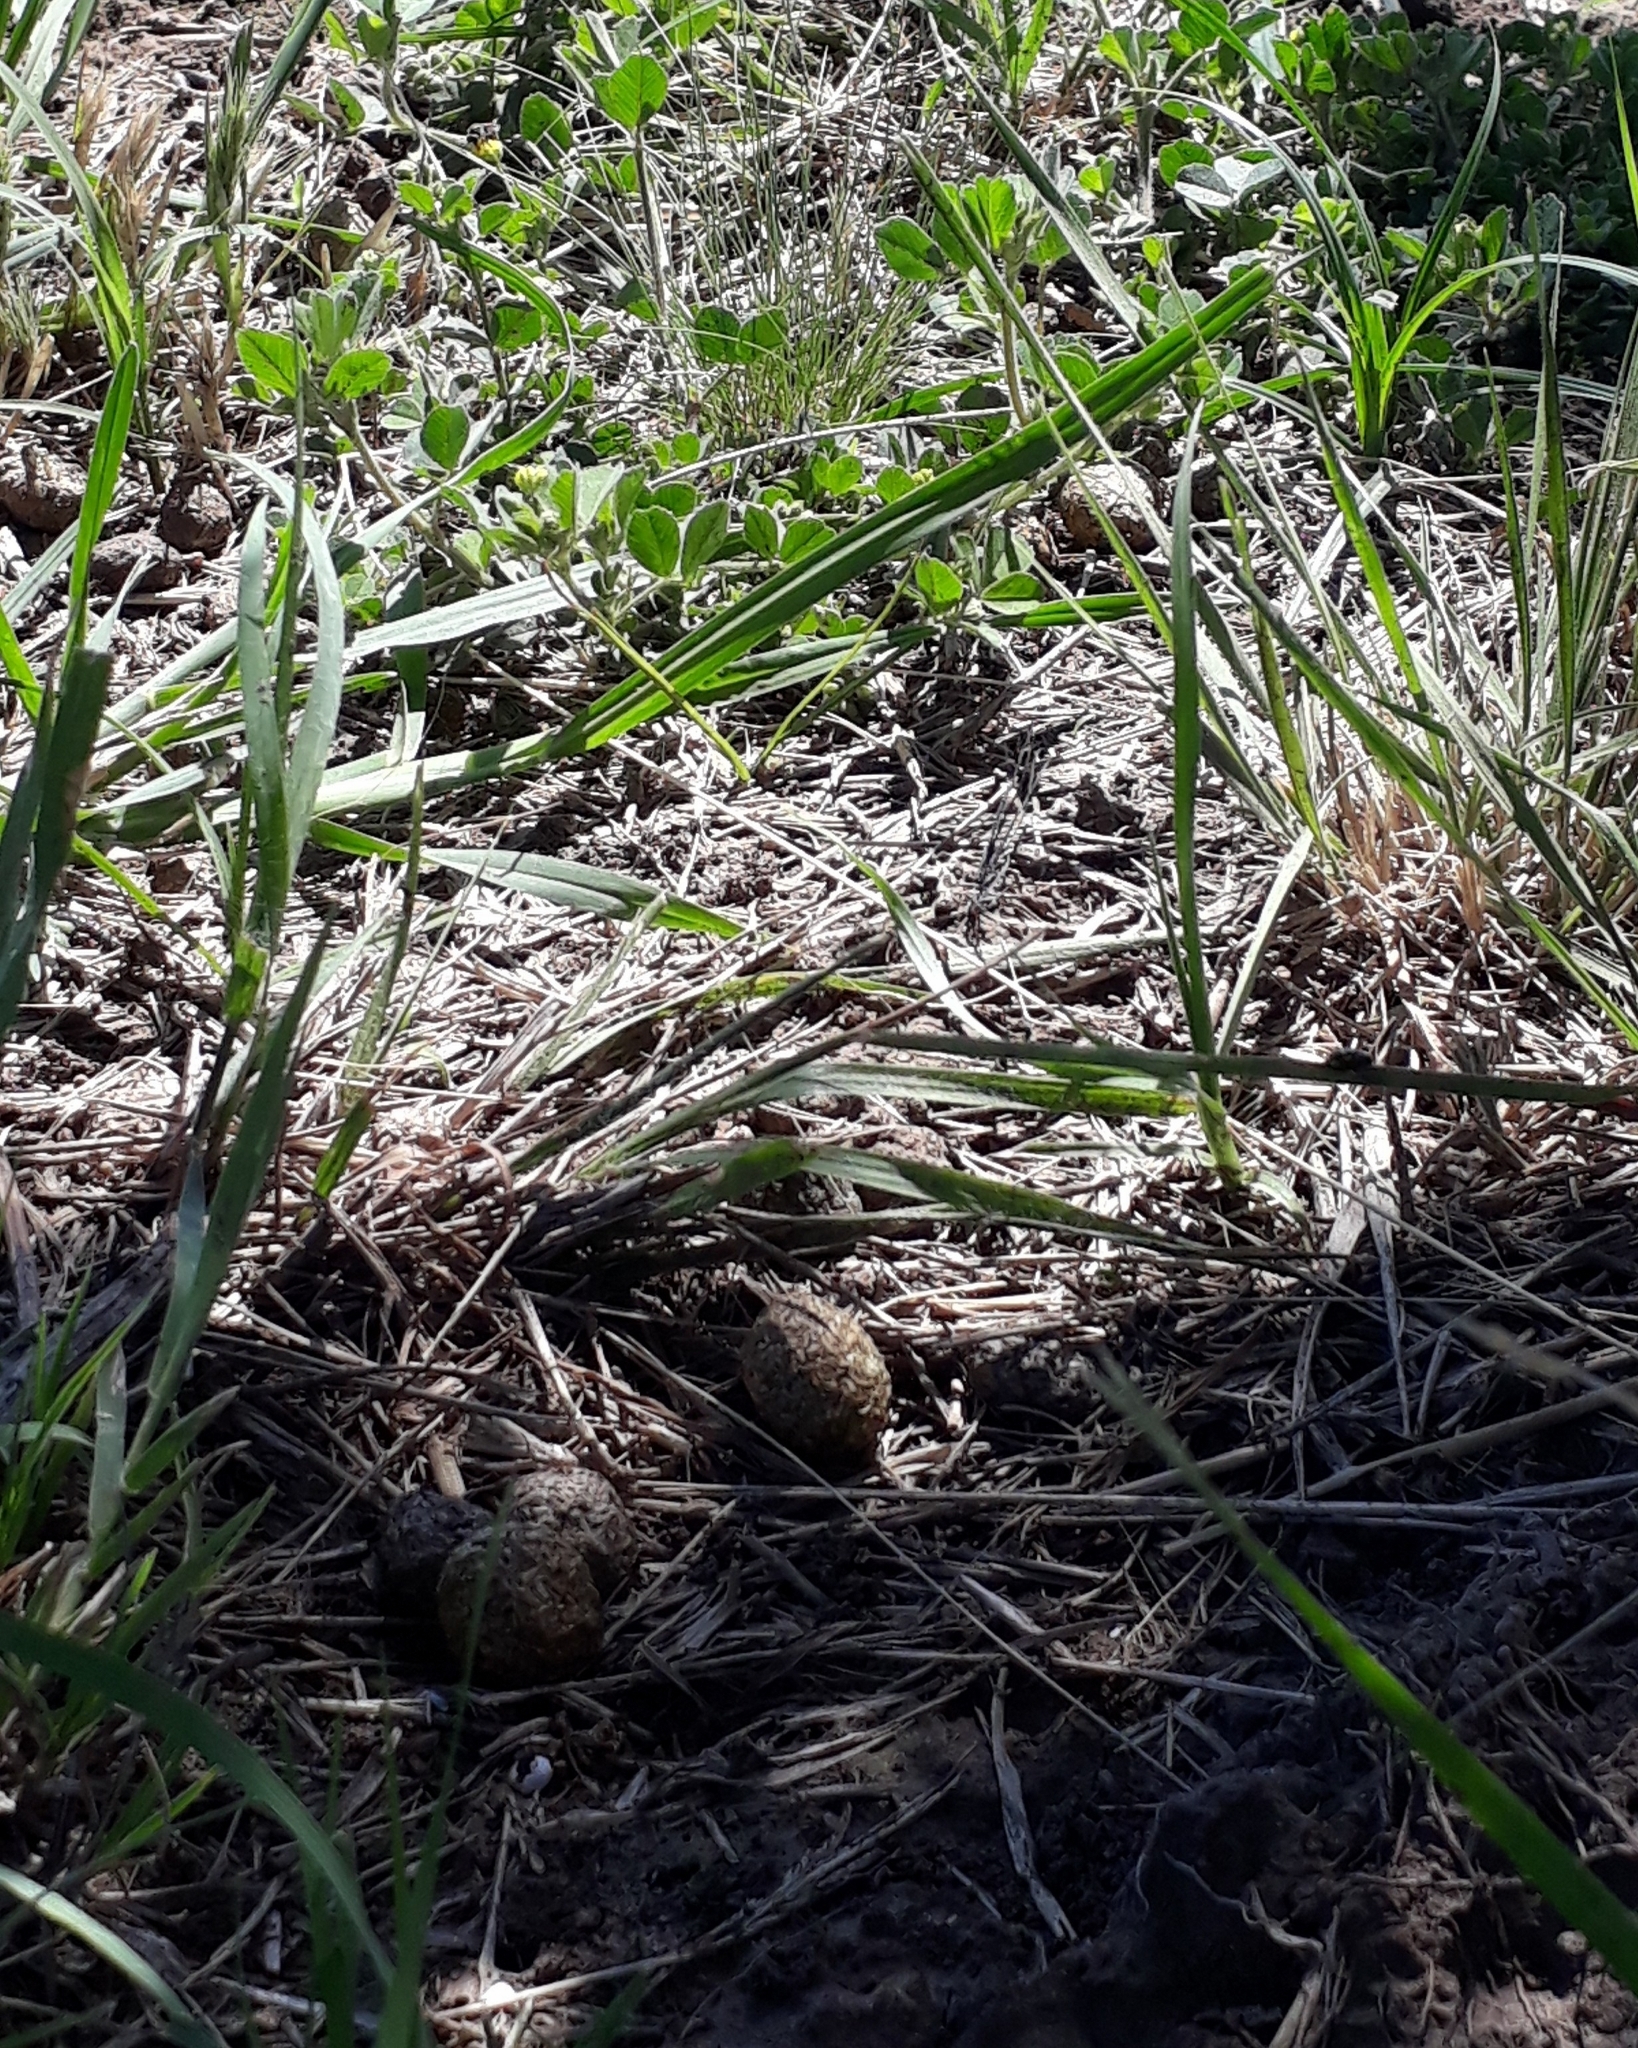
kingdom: Animalia
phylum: Chordata
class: Mammalia
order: Lagomorpha
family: Leporidae
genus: Lepus
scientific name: Lepus europaeus
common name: European hare
